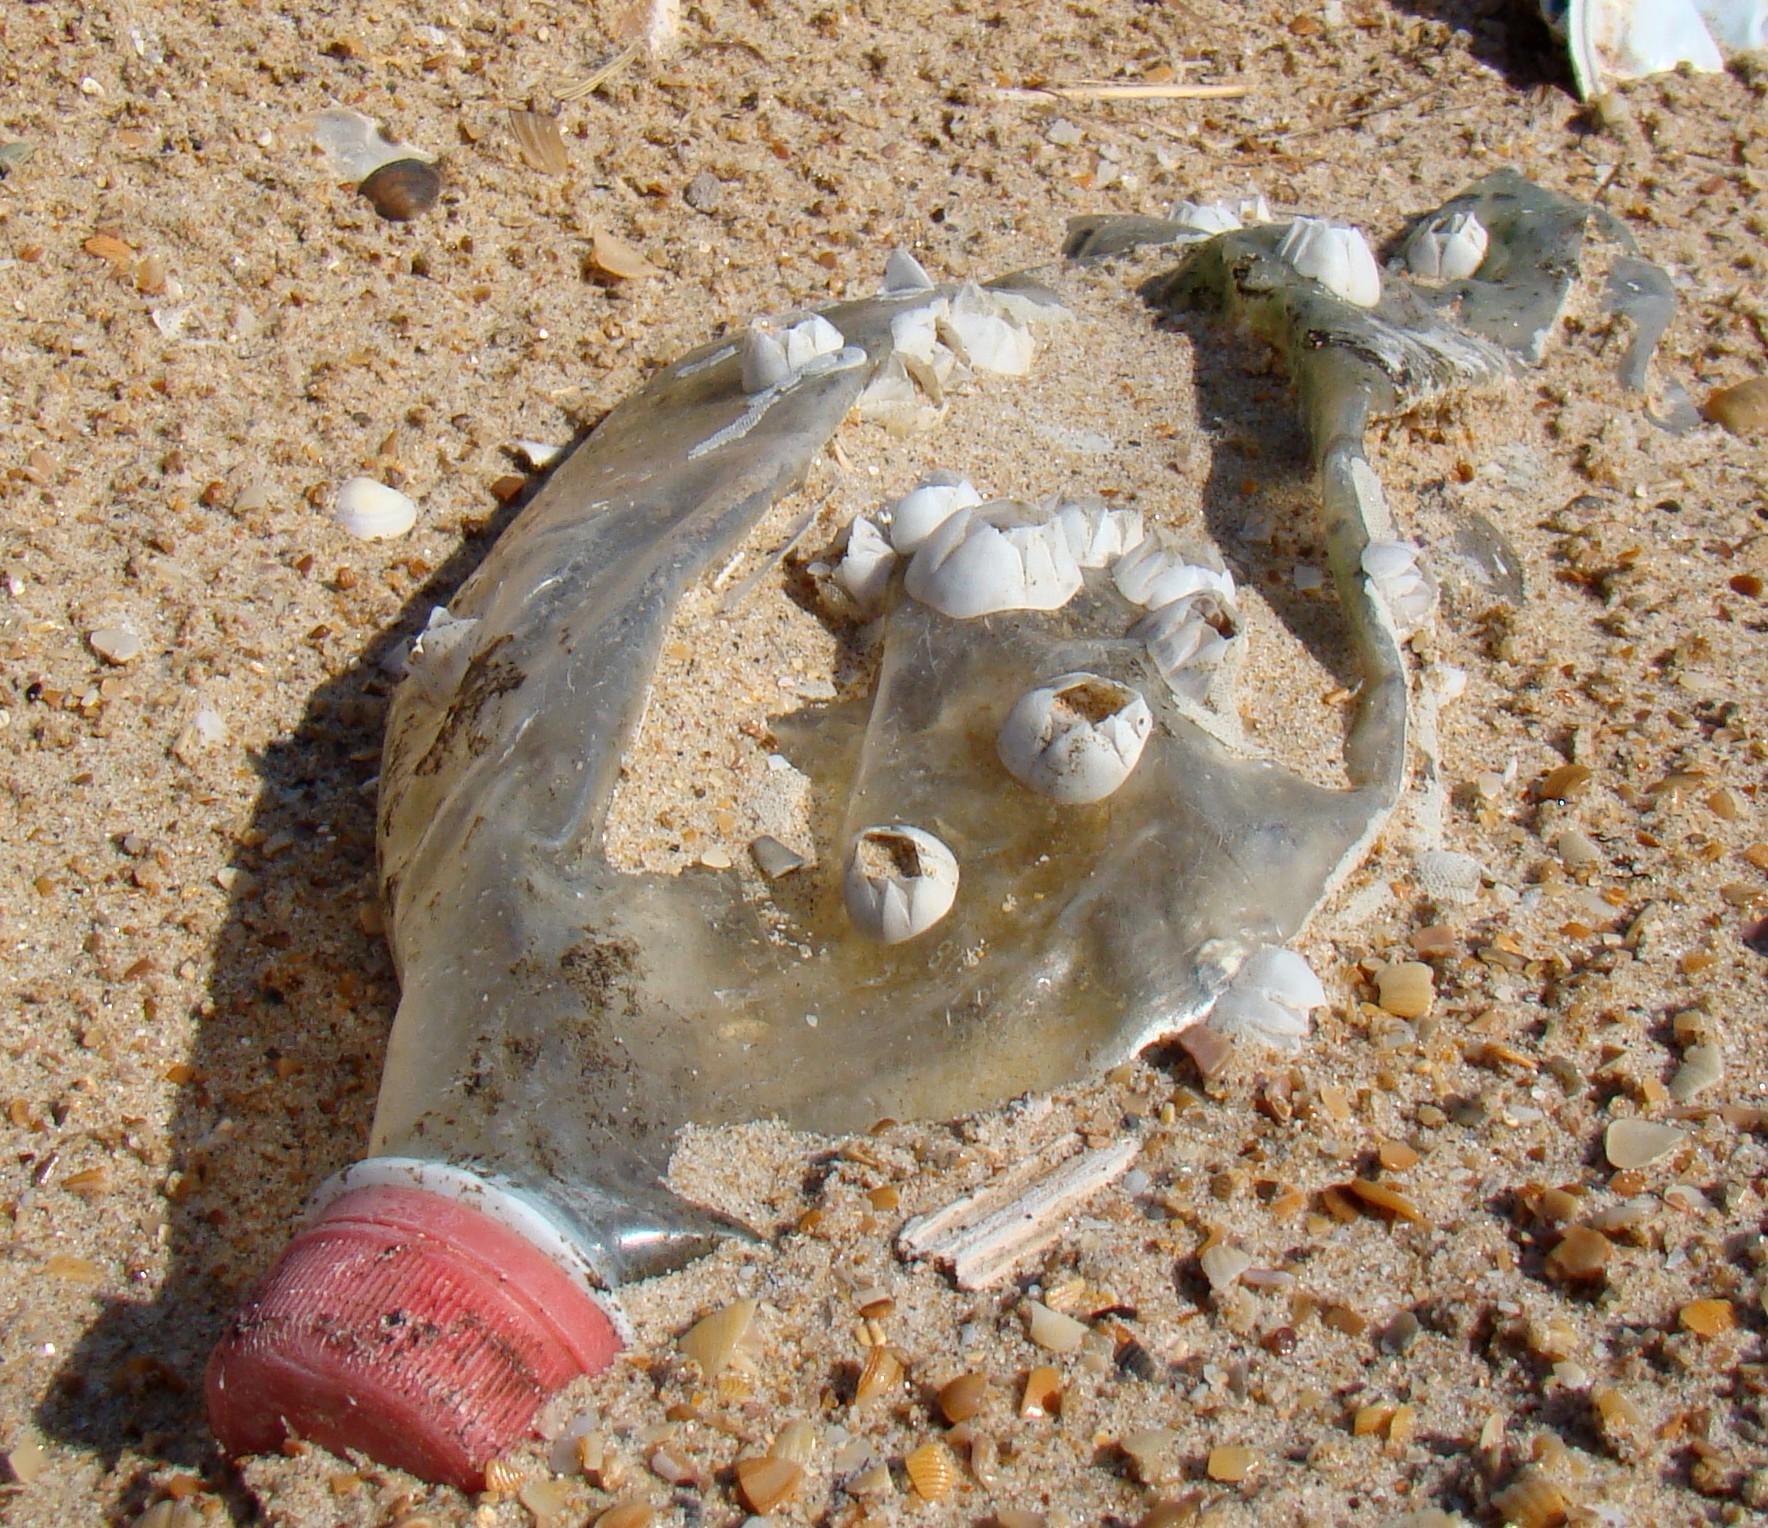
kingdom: Animalia
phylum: Arthropoda
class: Maxillopoda
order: Sessilia
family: Balanidae
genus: Amphibalanus
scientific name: Amphibalanus improvisus
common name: Bay barnacle
